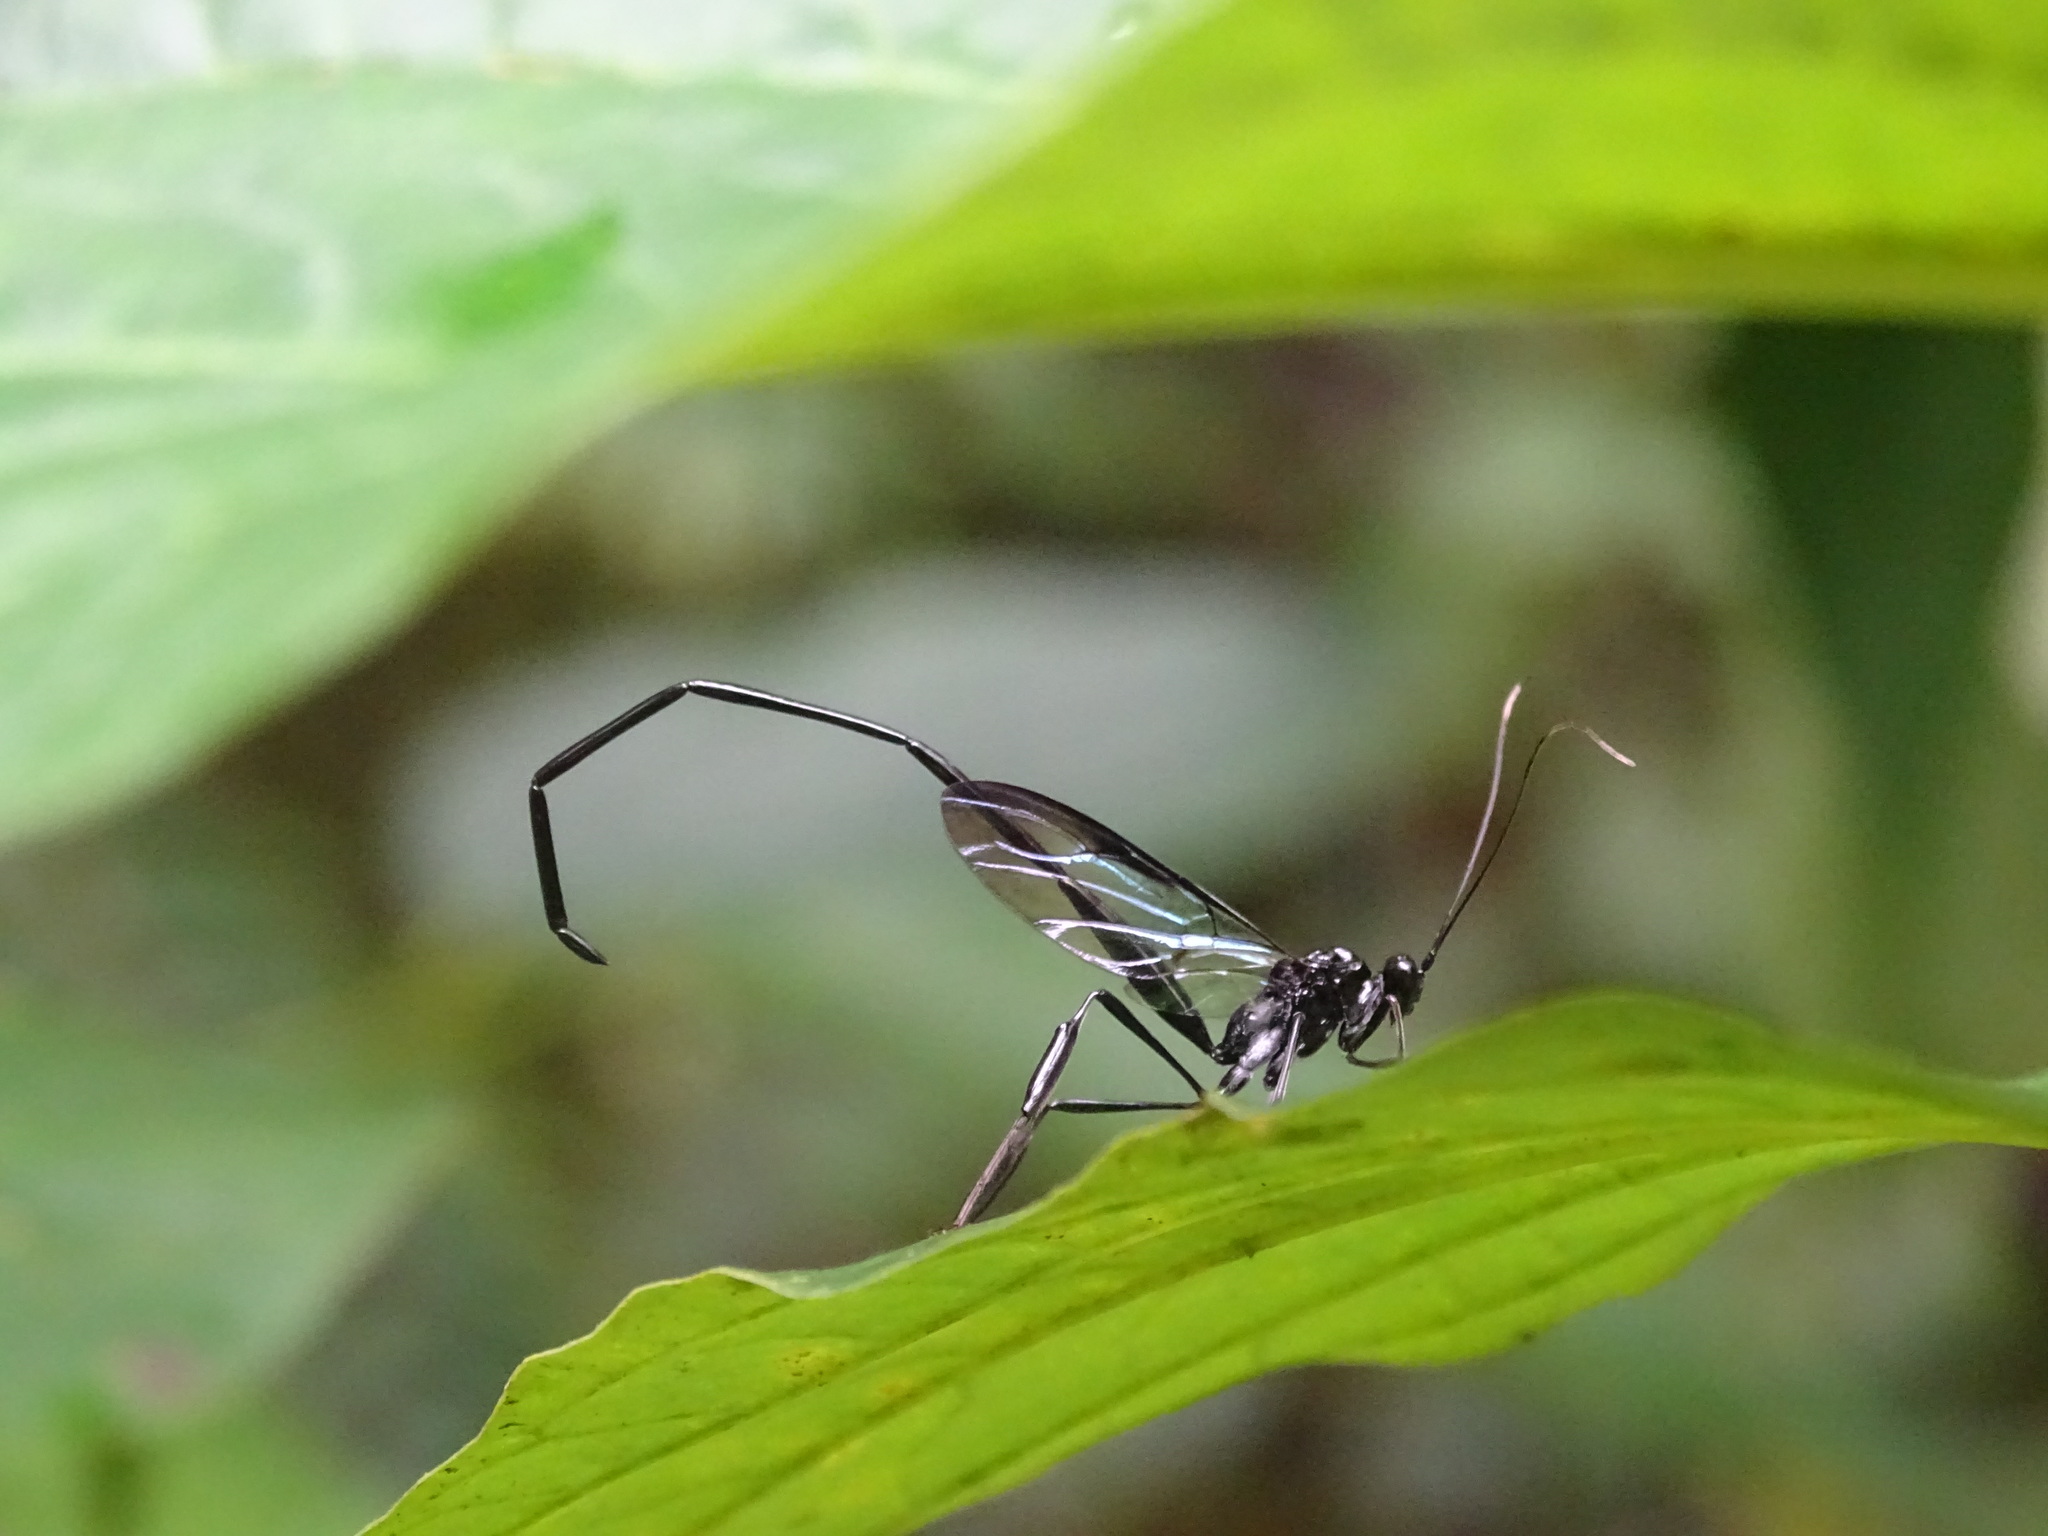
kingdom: Animalia
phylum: Arthropoda
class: Insecta
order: Hymenoptera
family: Pelecinidae
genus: Pelecinus
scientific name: Pelecinus polyturator
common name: American pelecinid wasp
